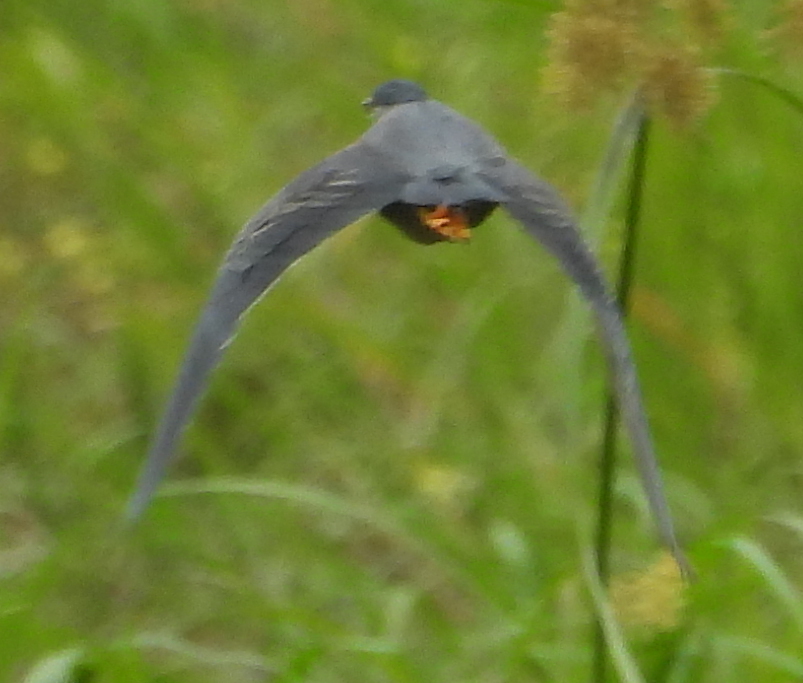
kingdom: Animalia
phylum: Chordata
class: Aves
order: Pelecaniformes
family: Ardeidae
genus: Butorides
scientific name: Butorides striata
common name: Striated heron
